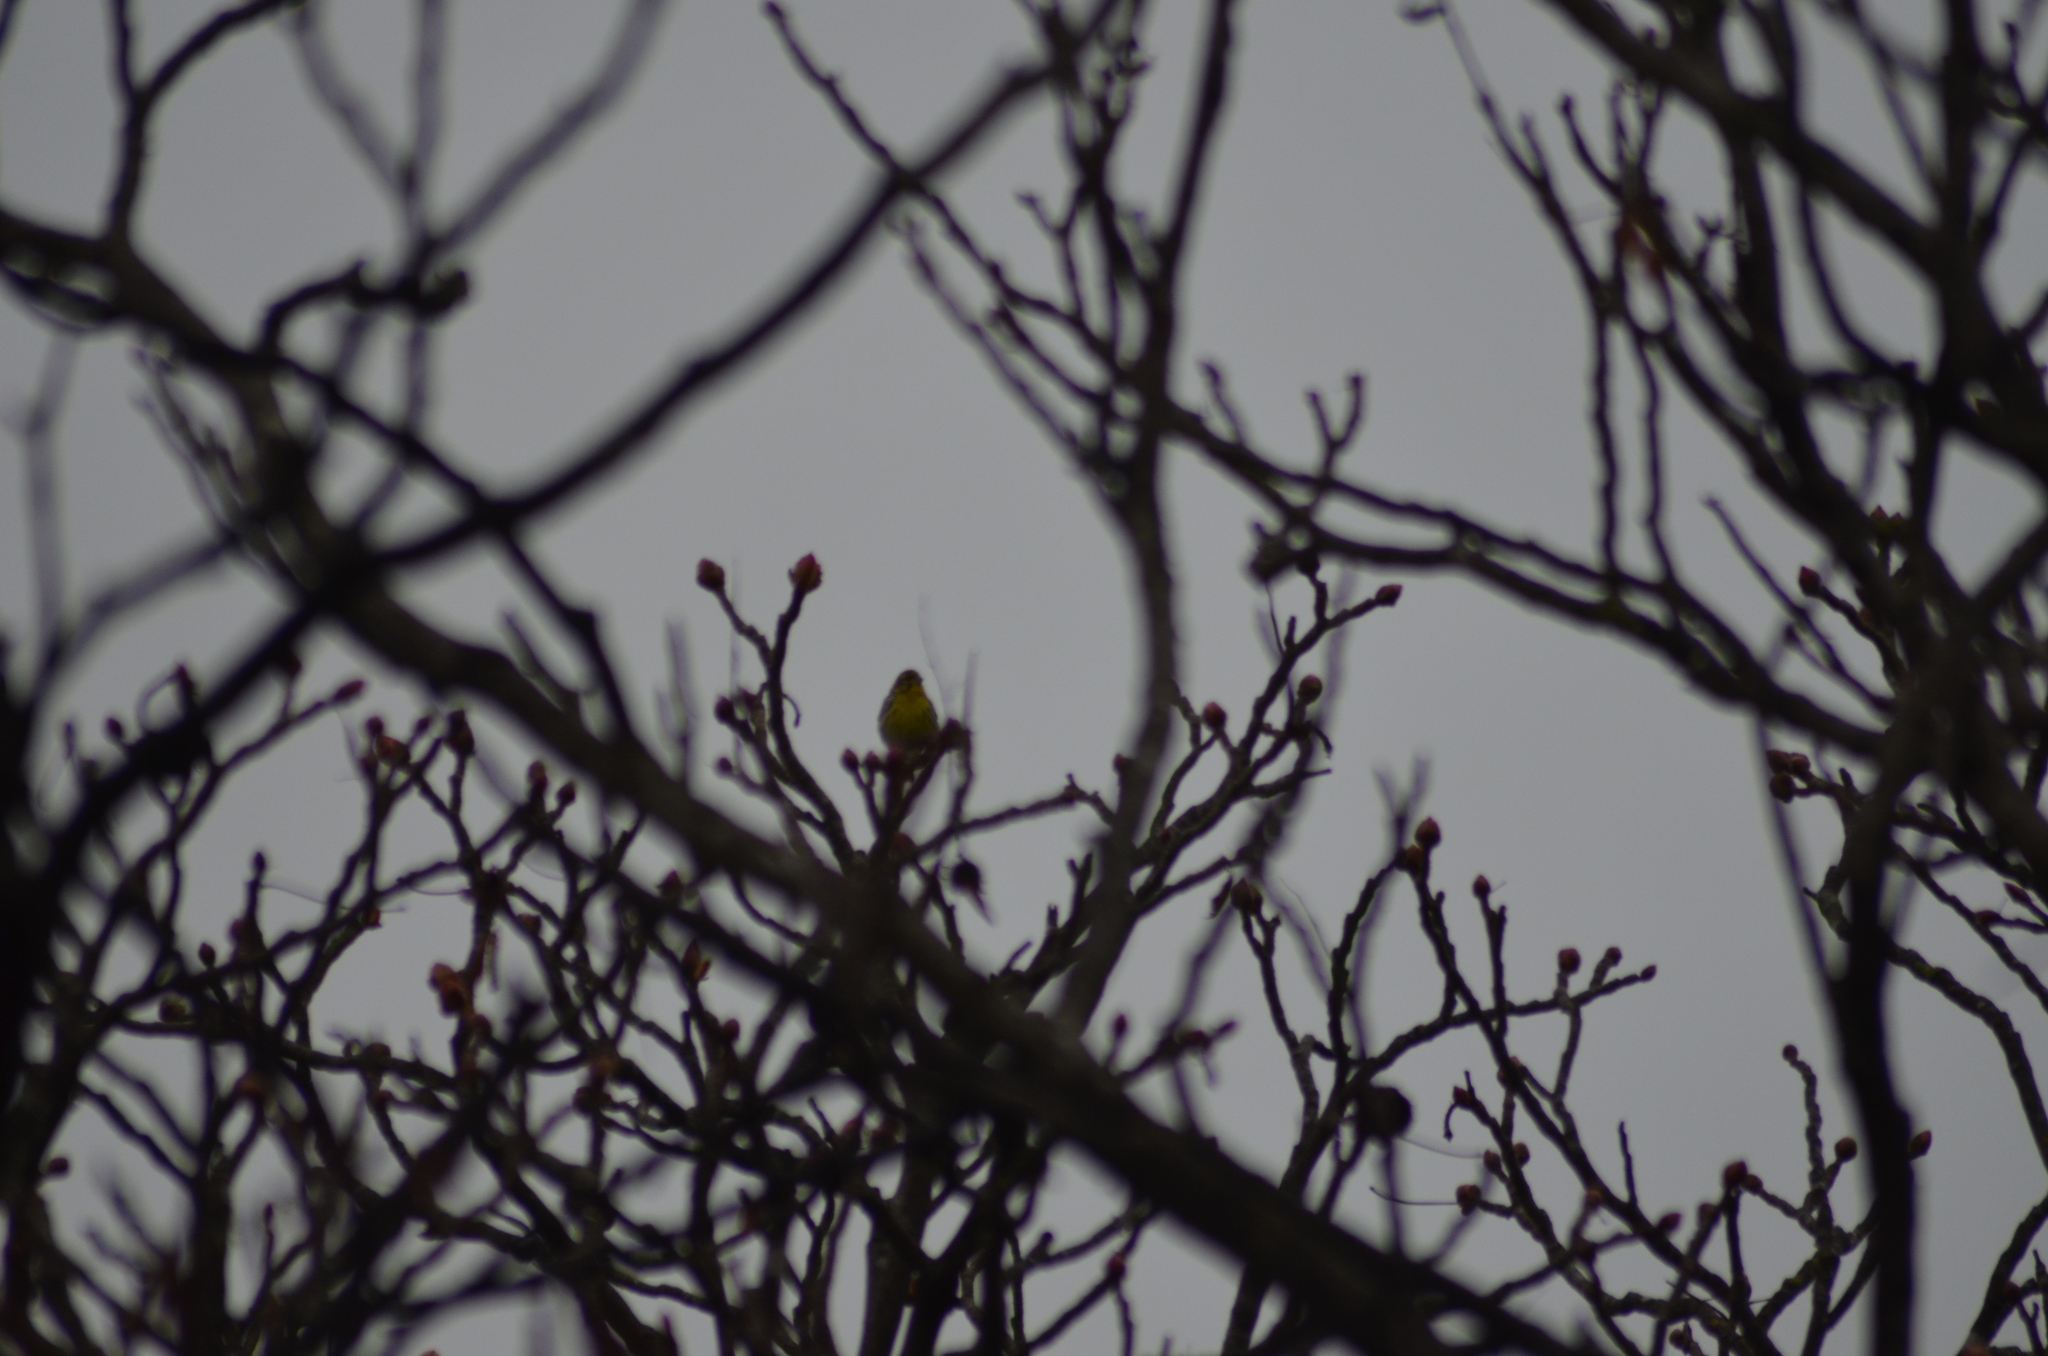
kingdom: Animalia
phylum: Chordata
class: Aves
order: Passeriformes
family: Fringillidae
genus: Serinus
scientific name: Serinus serinus
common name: European serin
